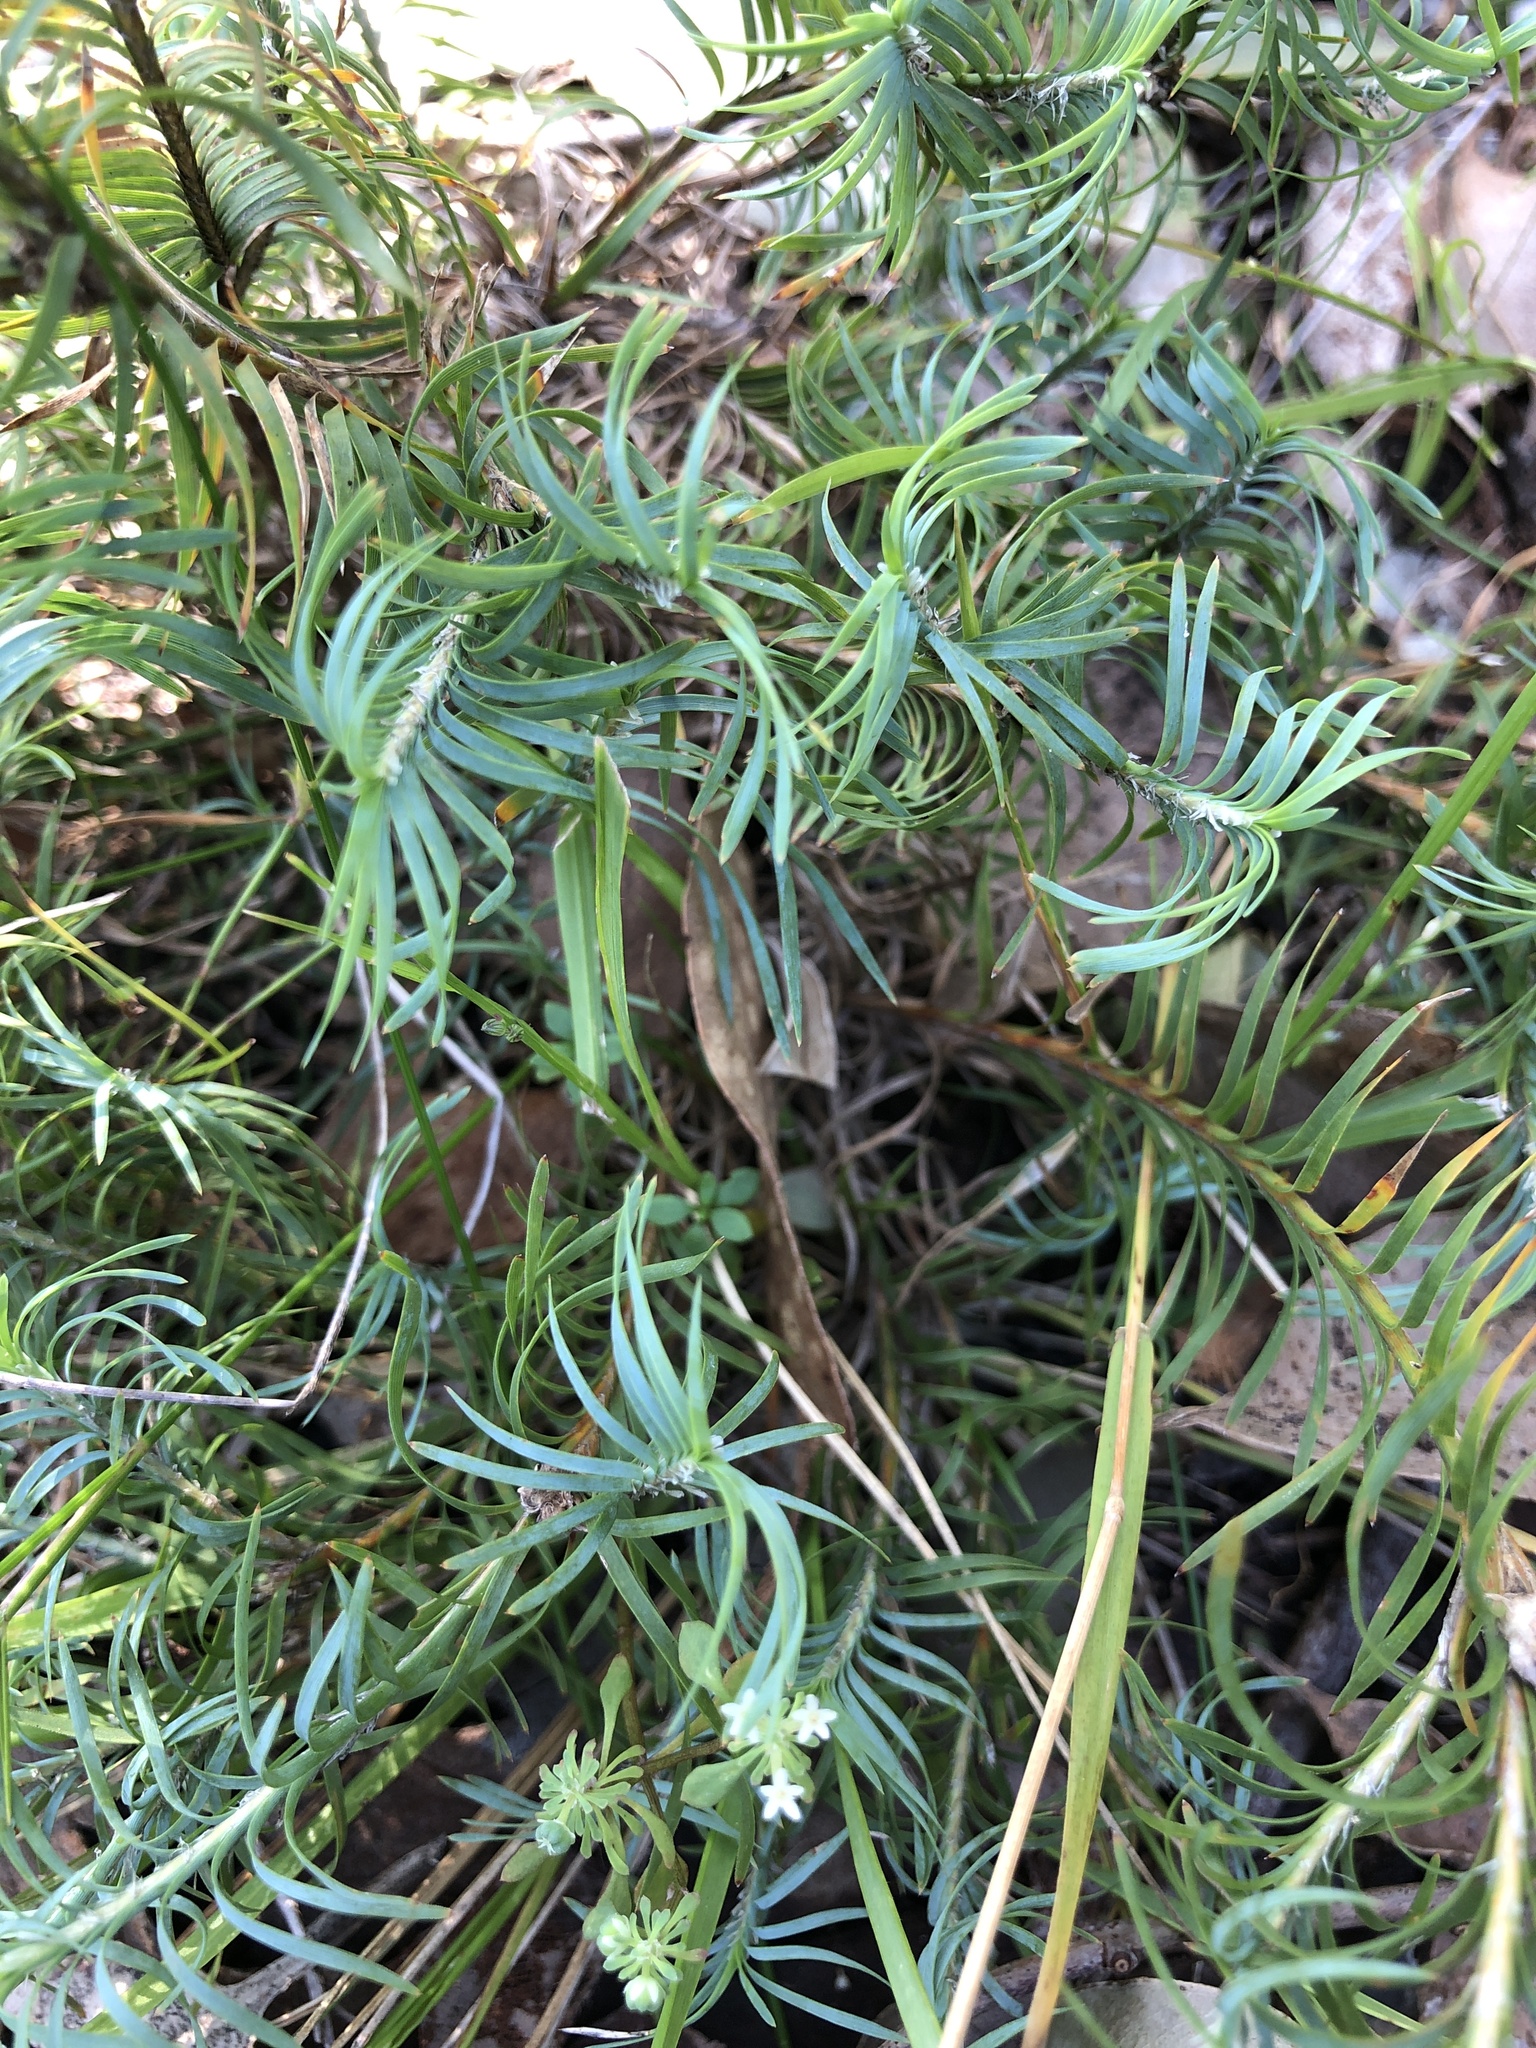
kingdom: Plantae
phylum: Tracheophyta
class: Liliopsida
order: Asparagales
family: Asparagaceae
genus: Lomandra
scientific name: Lomandra obliqua
